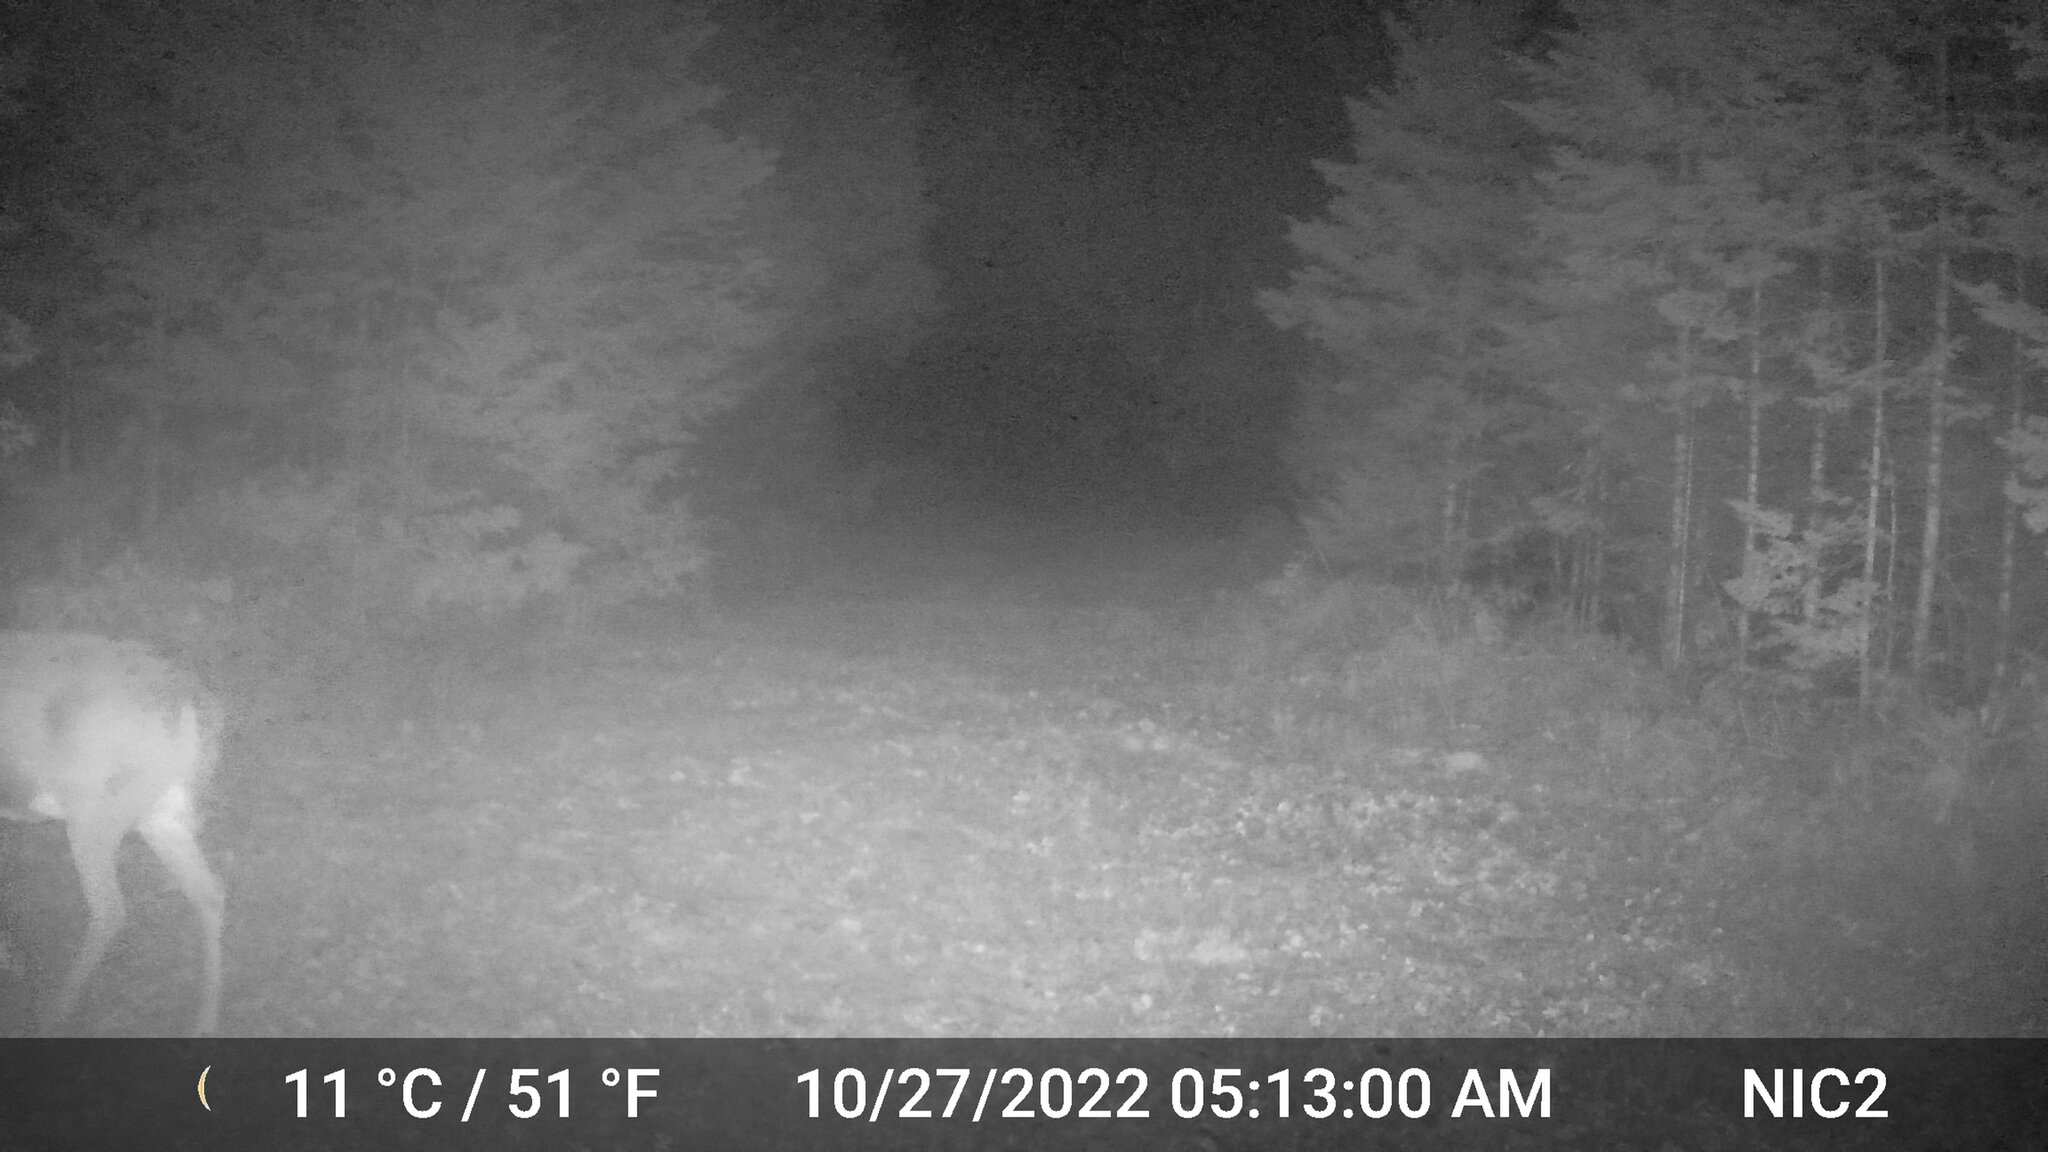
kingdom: Animalia
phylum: Chordata
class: Mammalia
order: Artiodactyla
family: Cervidae
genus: Odocoileus
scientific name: Odocoileus virginianus
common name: White-tailed deer
